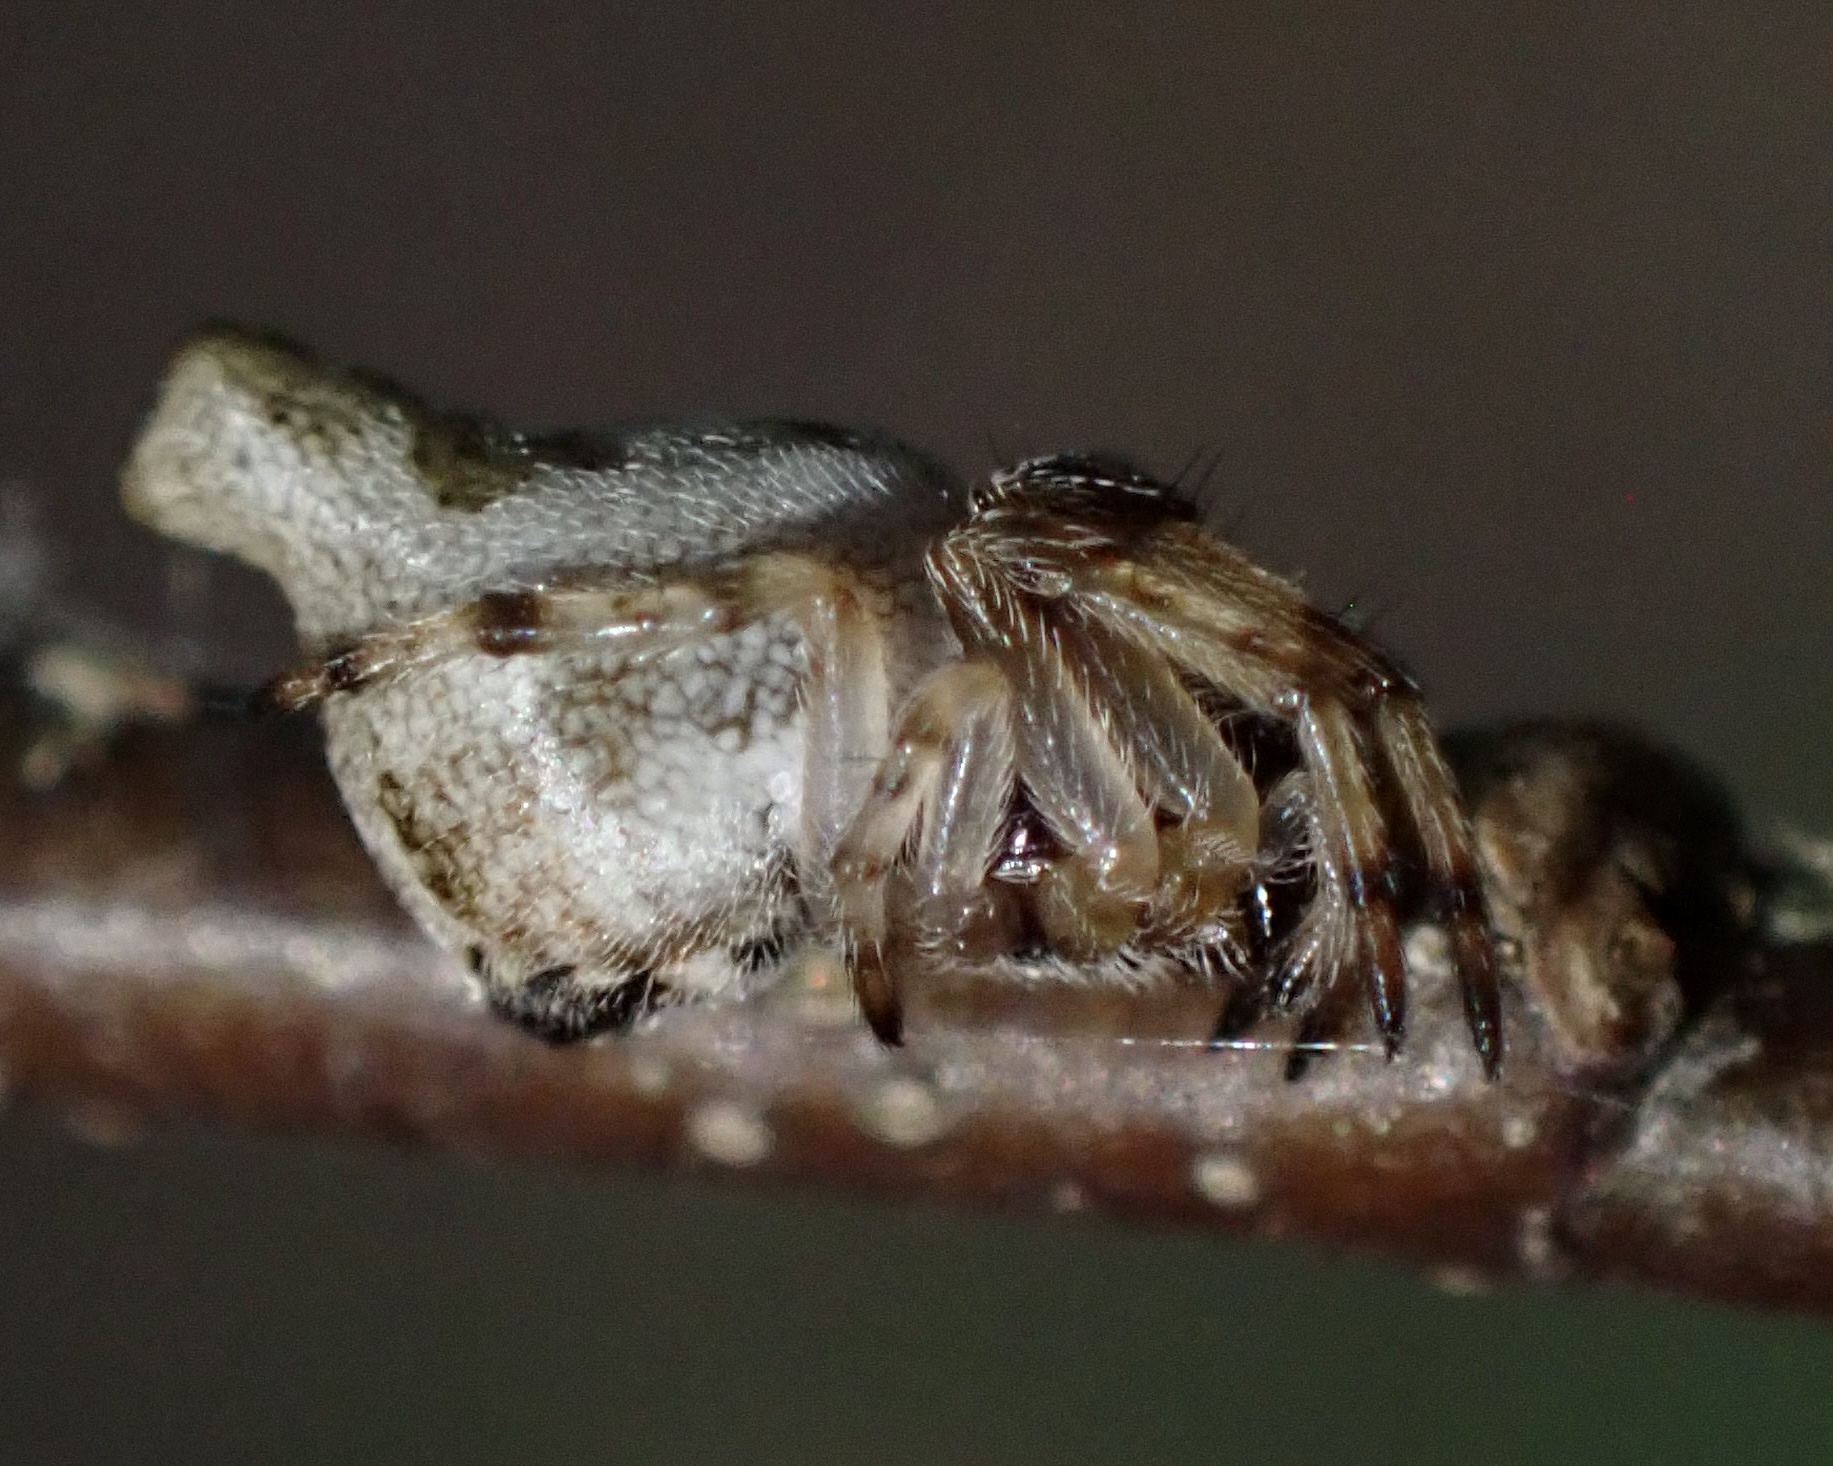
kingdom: Animalia
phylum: Arthropoda
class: Arachnida
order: Araneae
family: Araneidae
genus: Cyclosa
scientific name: Cyclosa conica
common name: Conical trashline orbweaver
